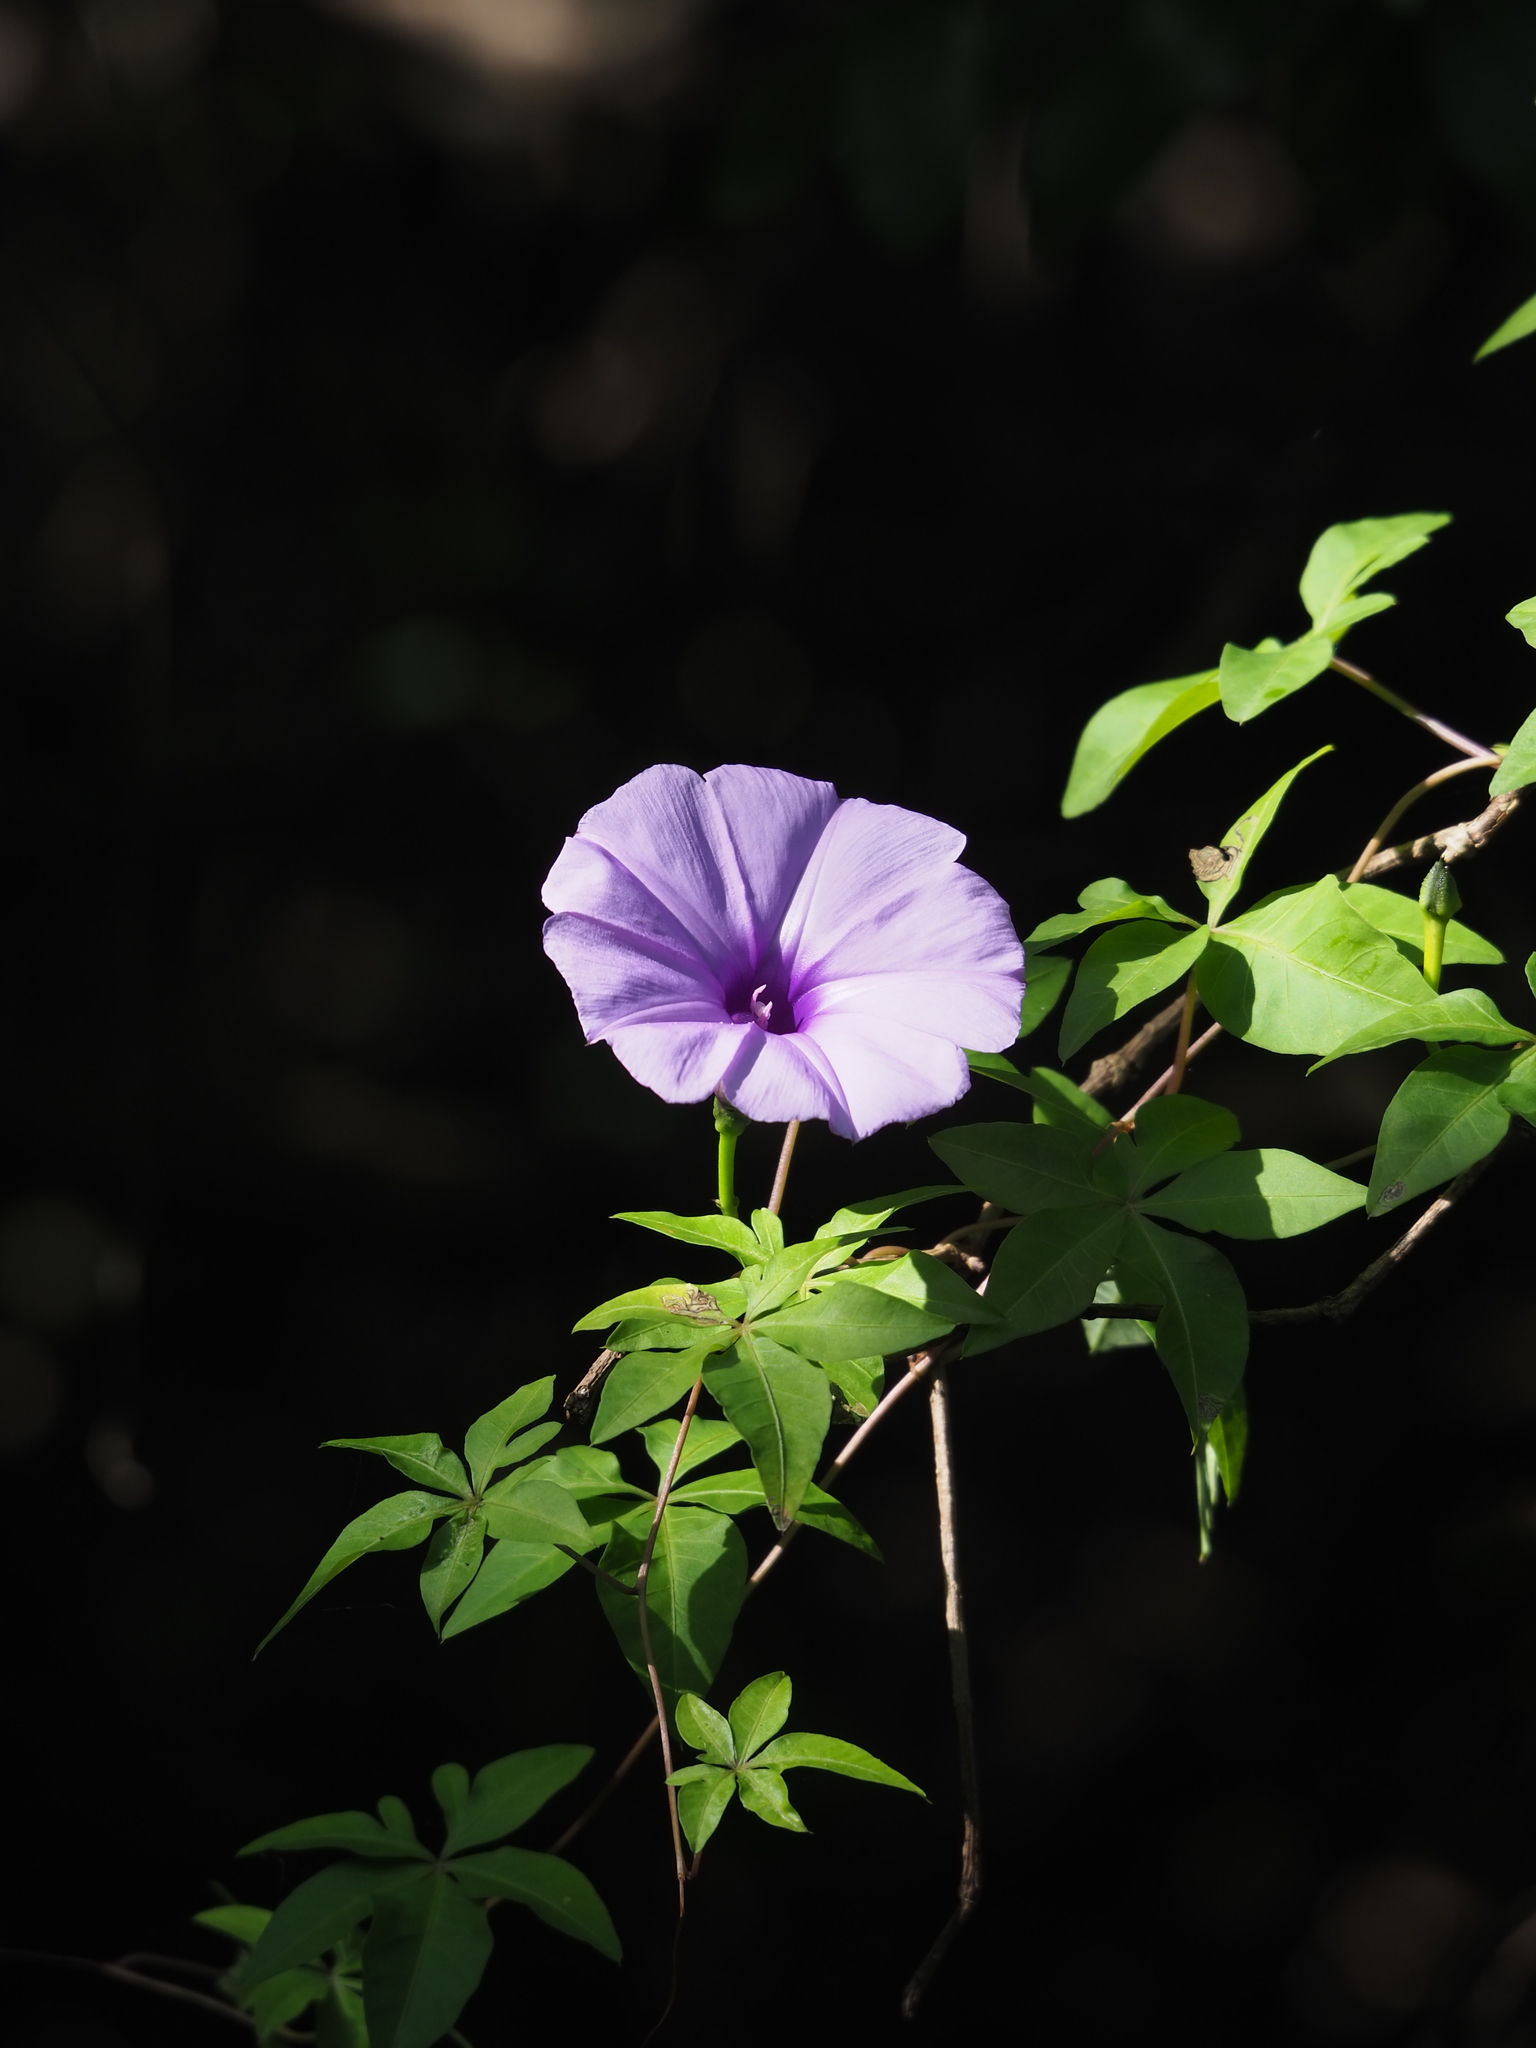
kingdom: Plantae
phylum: Tracheophyta
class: Magnoliopsida
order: Solanales
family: Convolvulaceae
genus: Ipomoea
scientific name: Ipomoea cairica
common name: Mile a minute vine
